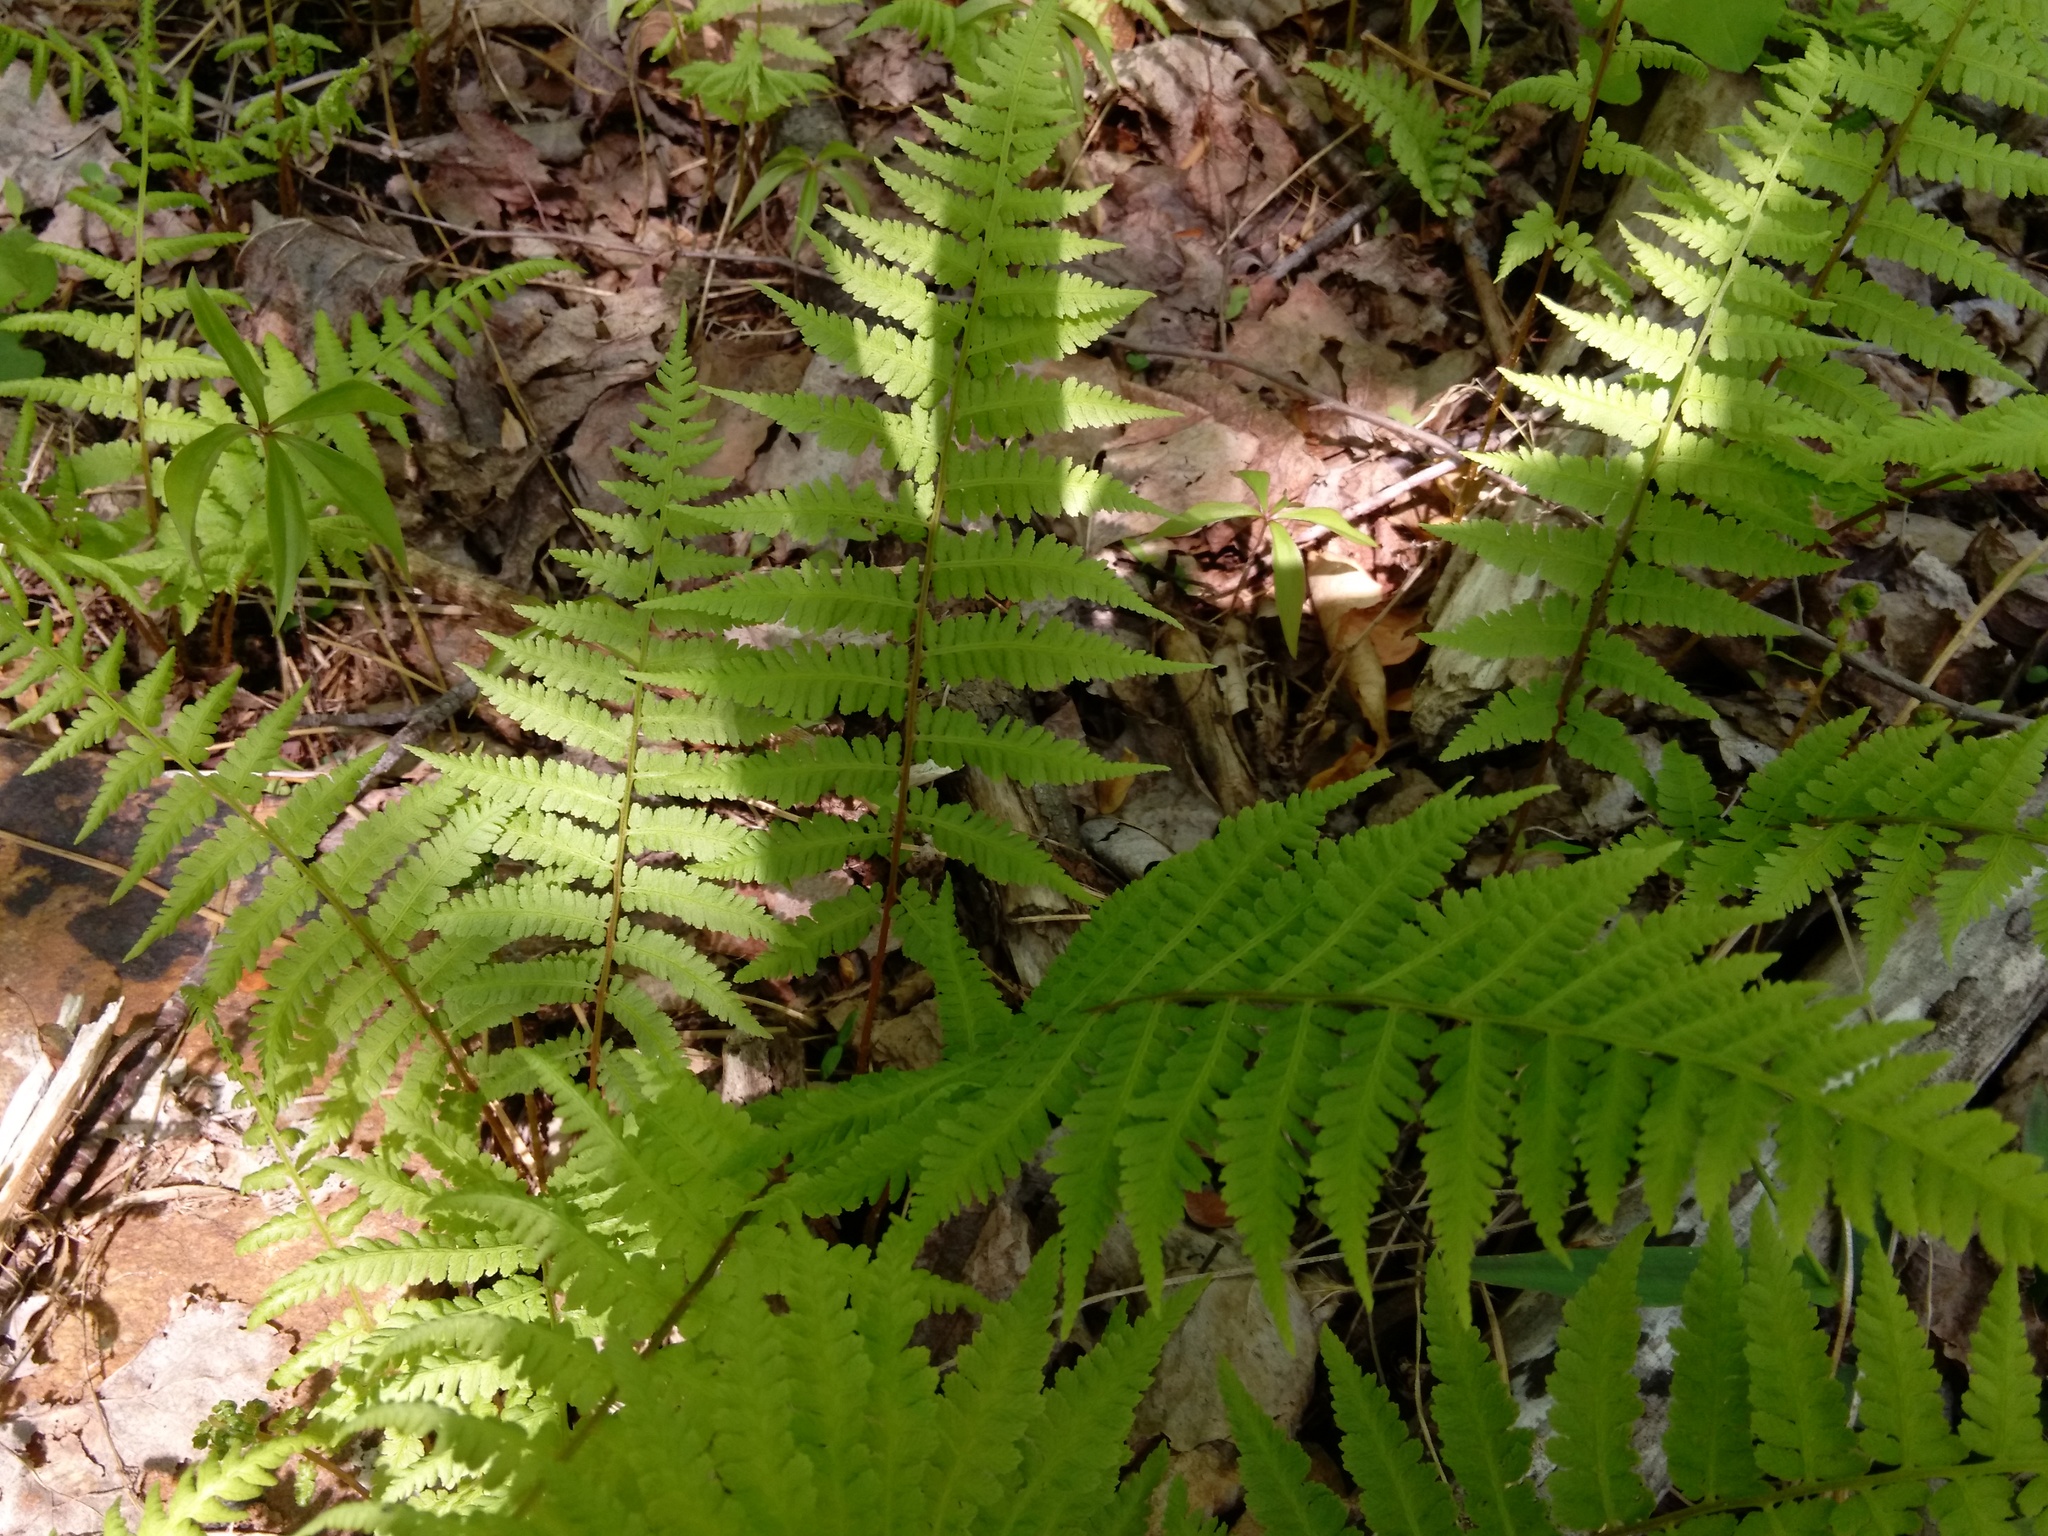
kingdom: Plantae
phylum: Tracheophyta
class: Polypodiopsida
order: Polypodiales
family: Thelypteridaceae
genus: Amauropelta
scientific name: Amauropelta noveboracensis
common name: New york fern
